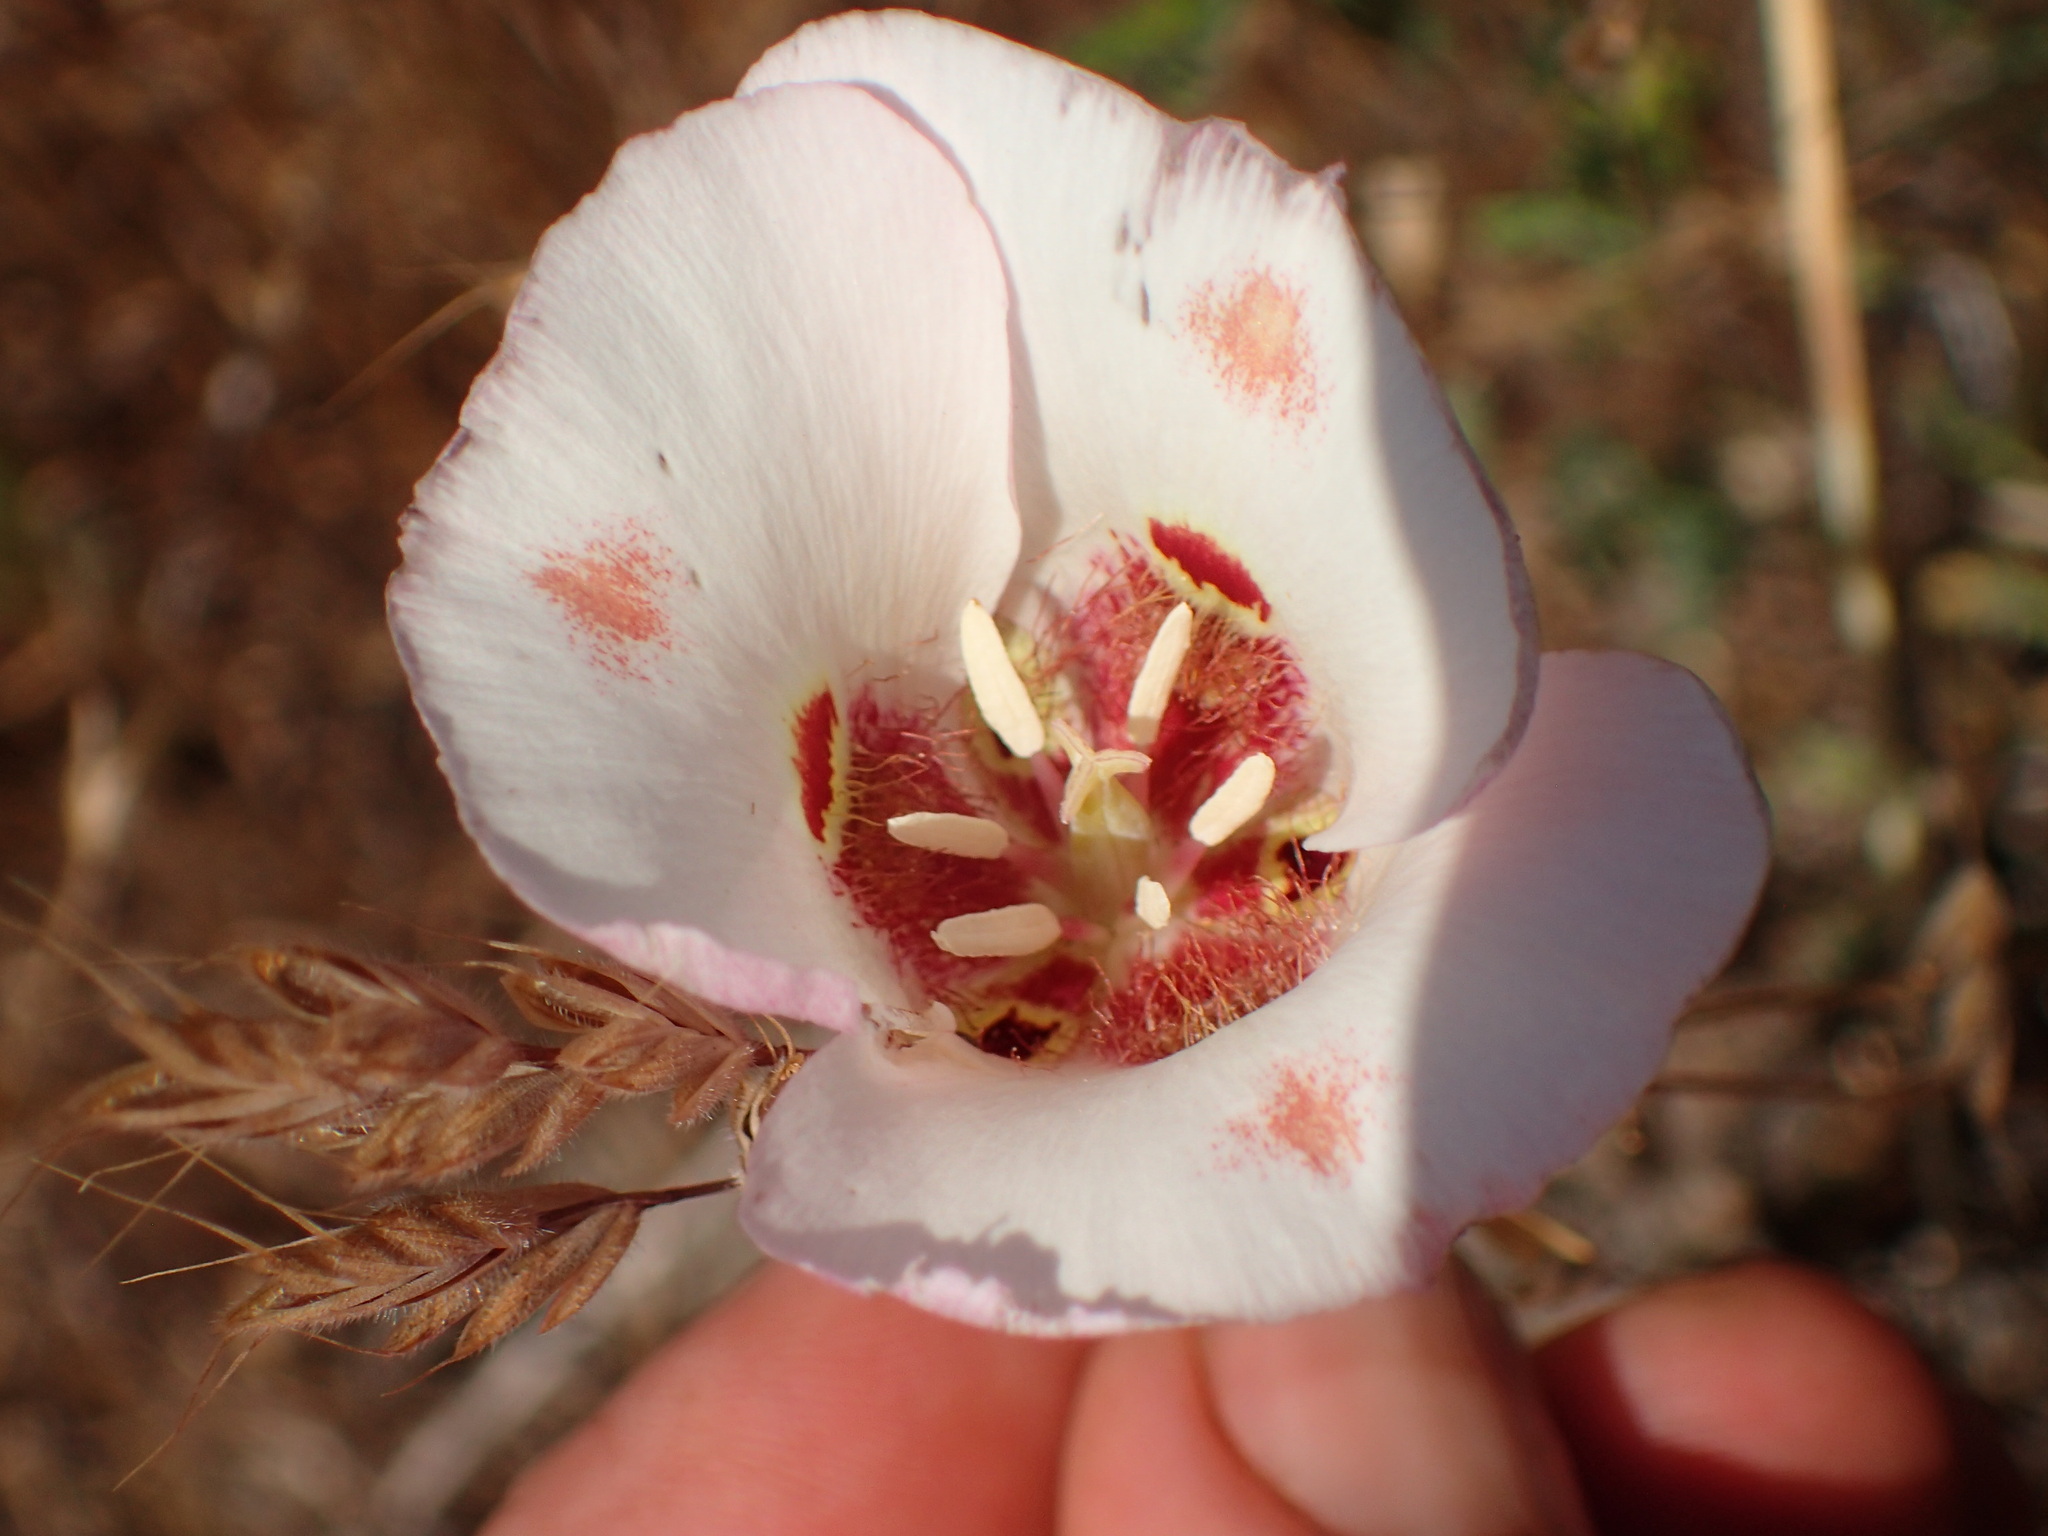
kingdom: Plantae
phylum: Tracheophyta
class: Liliopsida
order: Liliales
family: Liliaceae
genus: Calochortus
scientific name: Calochortus venustus
